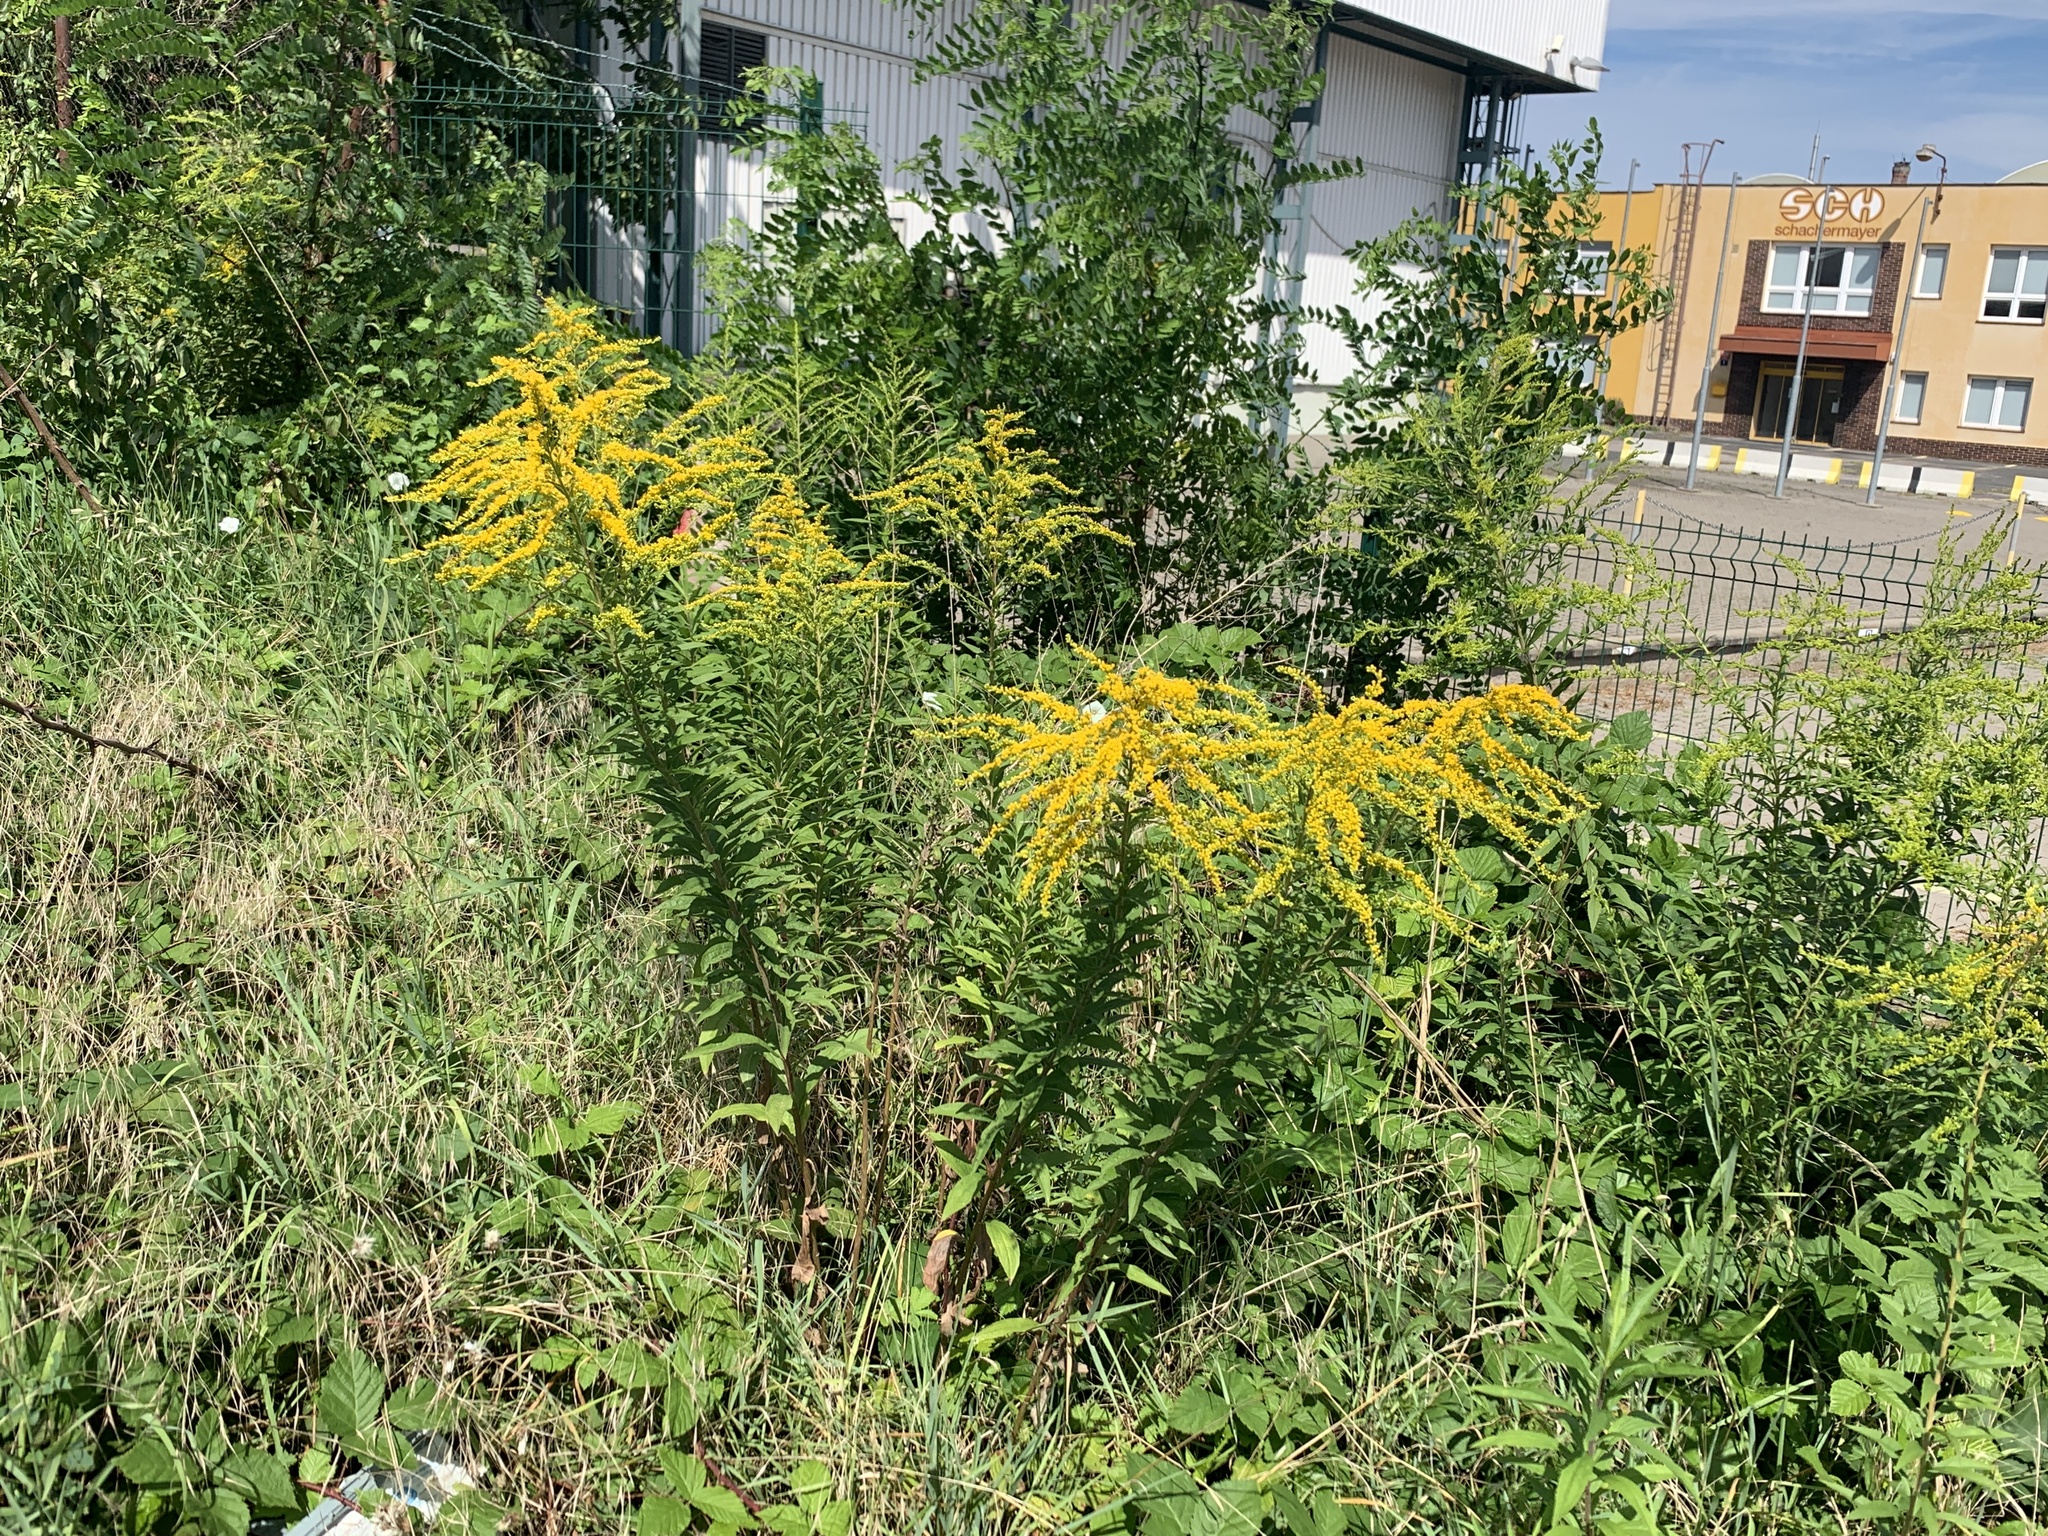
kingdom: Plantae
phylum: Tracheophyta
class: Magnoliopsida
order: Asterales
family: Asteraceae
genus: Solidago
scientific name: Solidago canadensis
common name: Canada goldenrod
